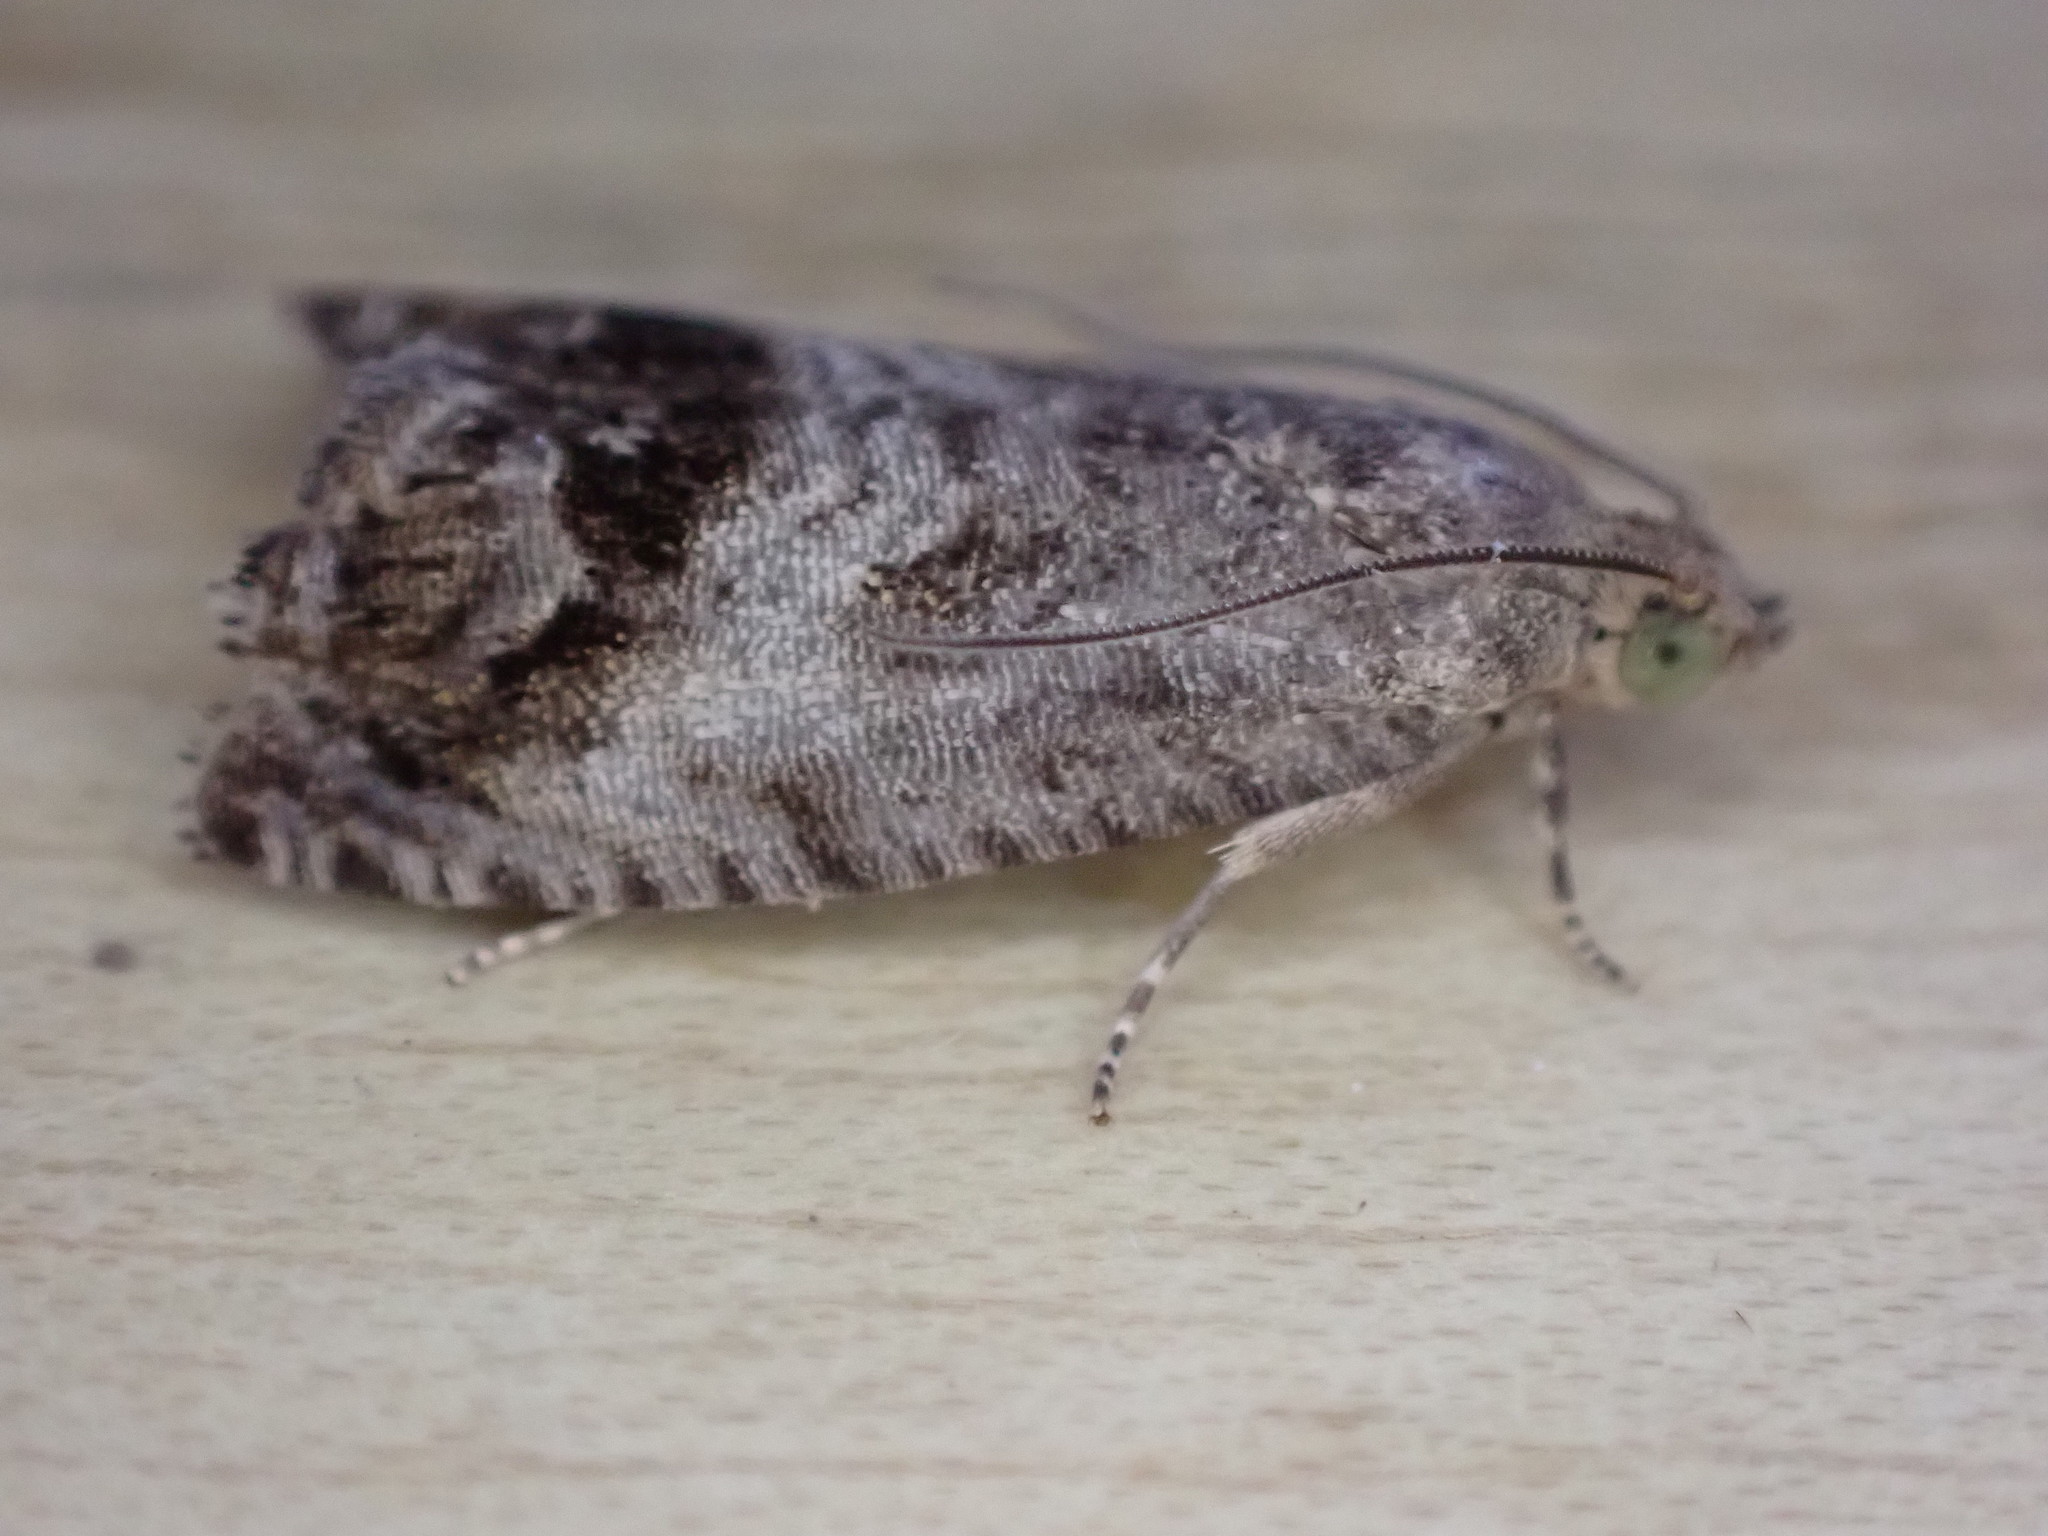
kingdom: Animalia
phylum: Arthropoda
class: Insecta
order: Lepidoptera
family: Tortricidae
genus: Cydia
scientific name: Cydia splendana
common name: De: kastanienwickler, eichenwickler es: oruga de la castaña fr: carpocapse des châtaignes it: cidia o tortrice tardiva delle castagne pt: bichado das castanhas gb: acorn moth, chestnut fruit tortrix
